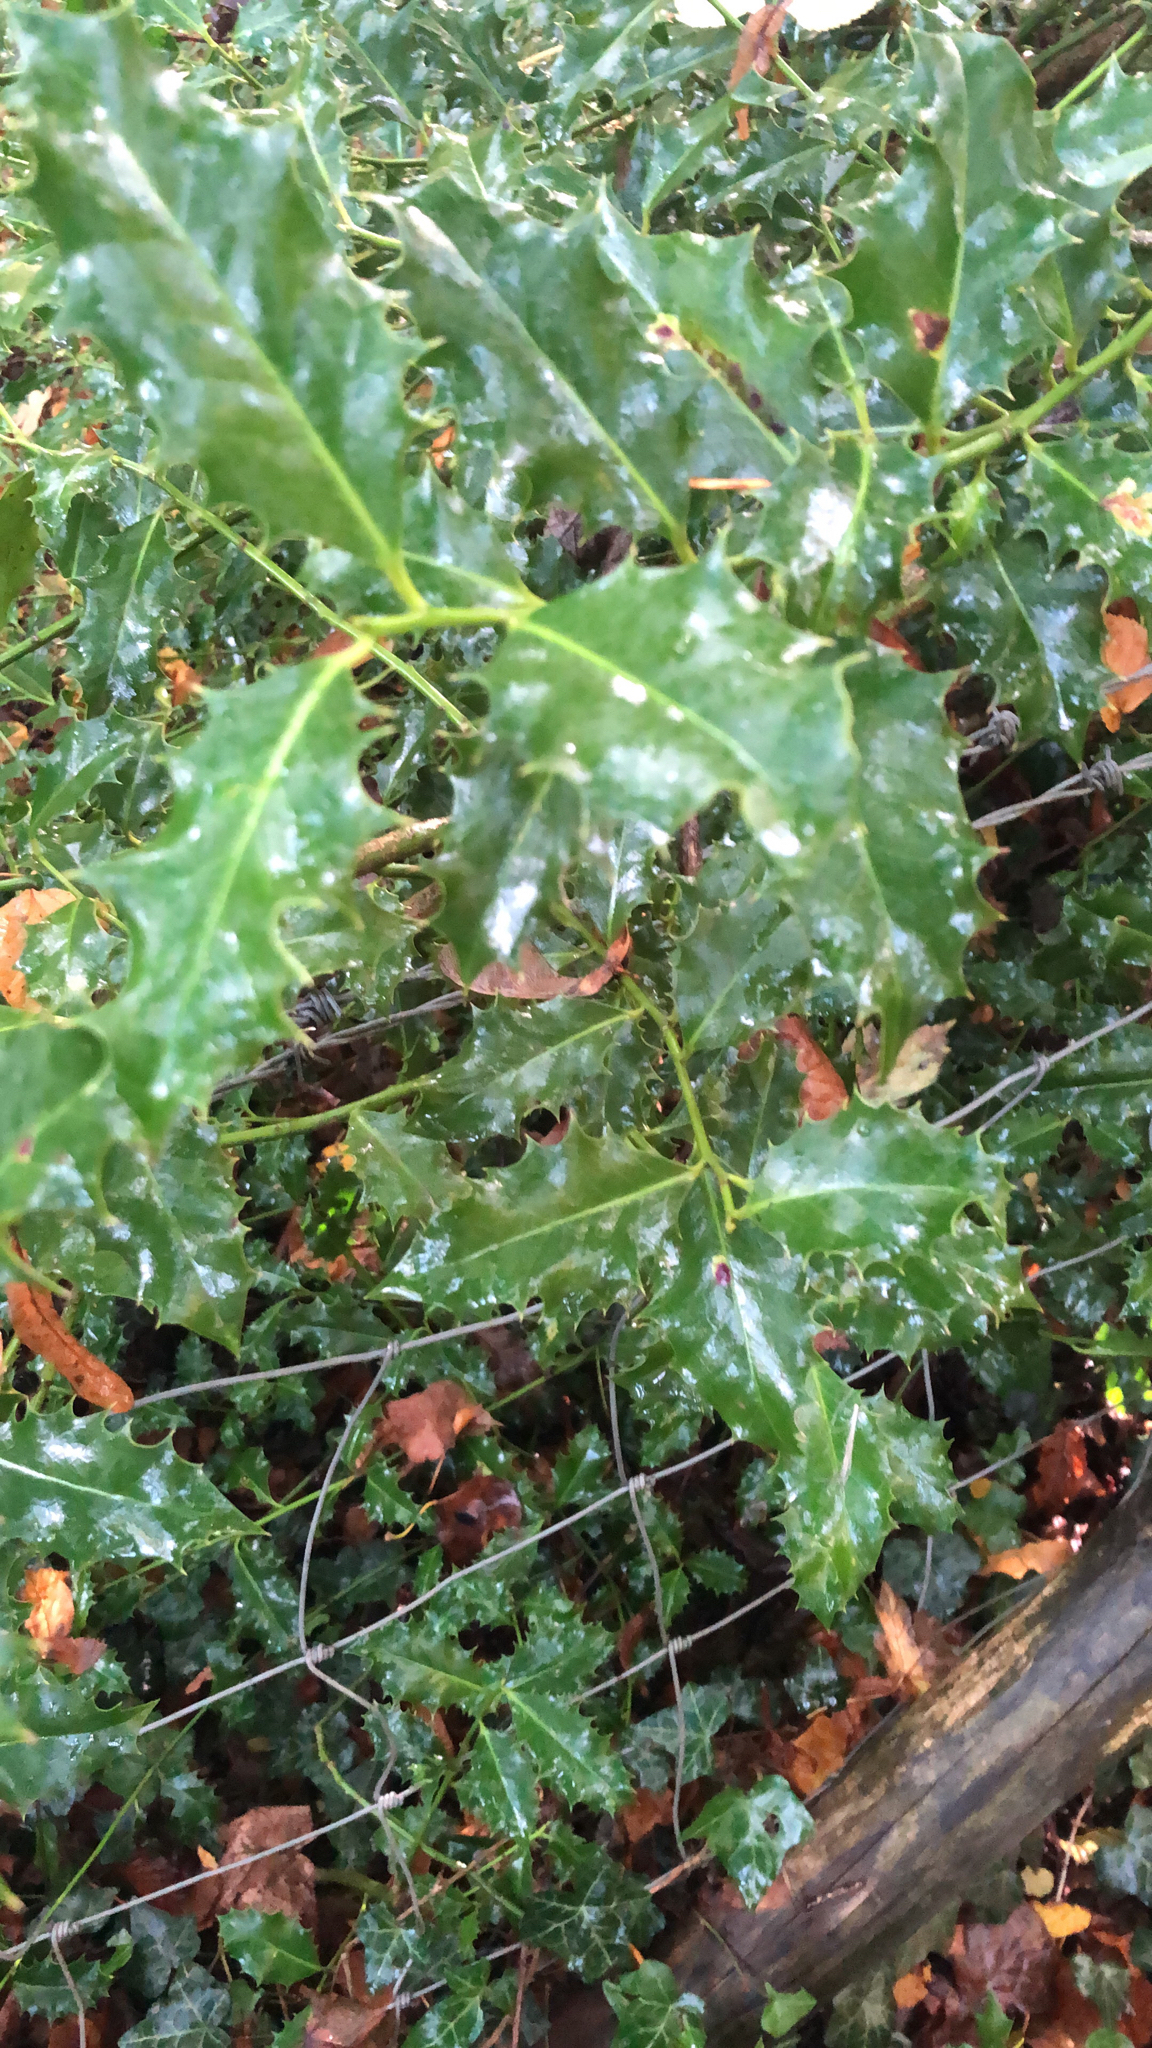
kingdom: Plantae
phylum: Tracheophyta
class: Magnoliopsida
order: Aquifoliales
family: Aquifoliaceae
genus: Ilex
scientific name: Ilex aquifolium
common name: English holly
